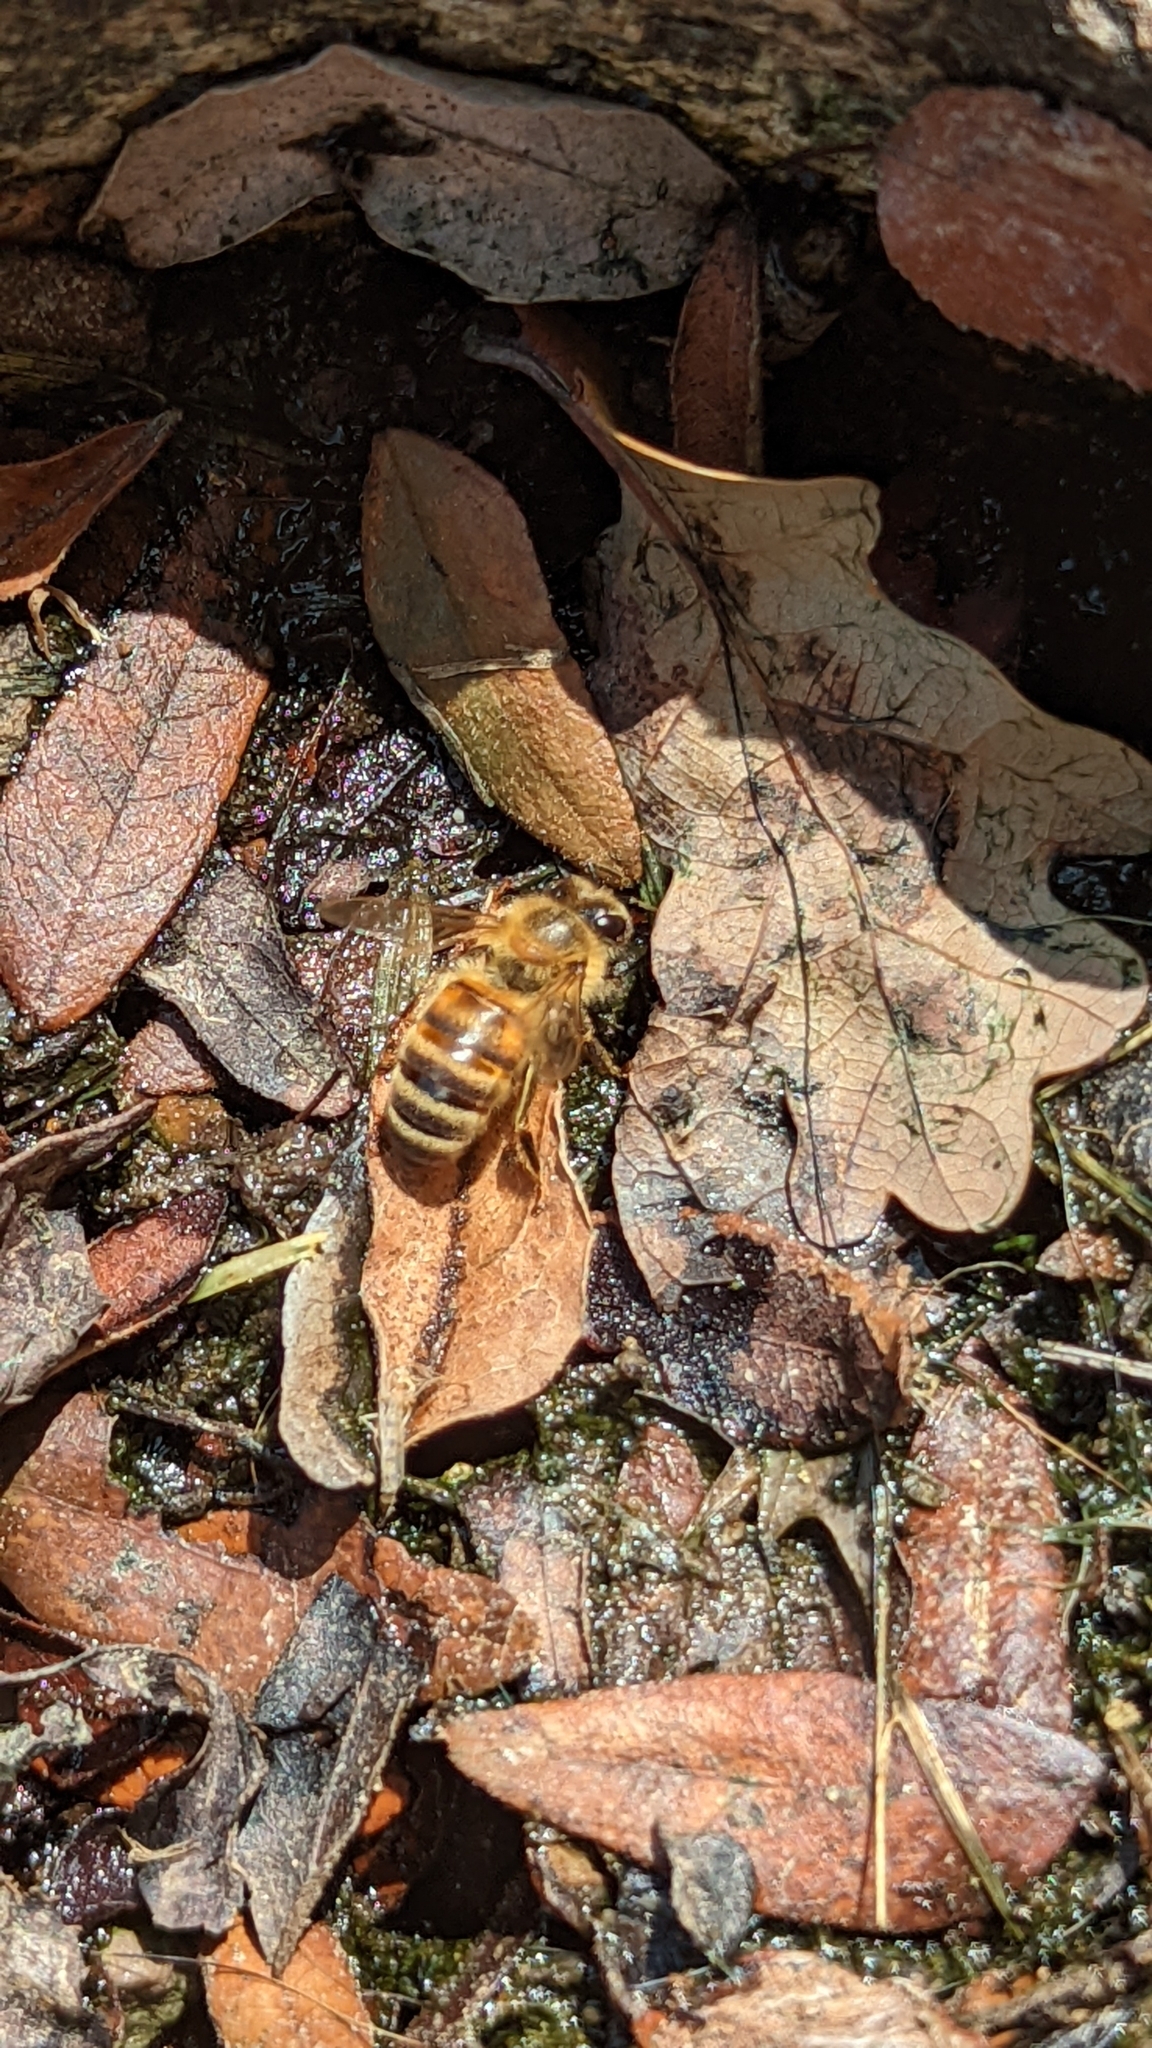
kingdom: Animalia
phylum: Arthropoda
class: Insecta
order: Hymenoptera
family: Apidae
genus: Apis
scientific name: Apis mellifera
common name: Honey bee
